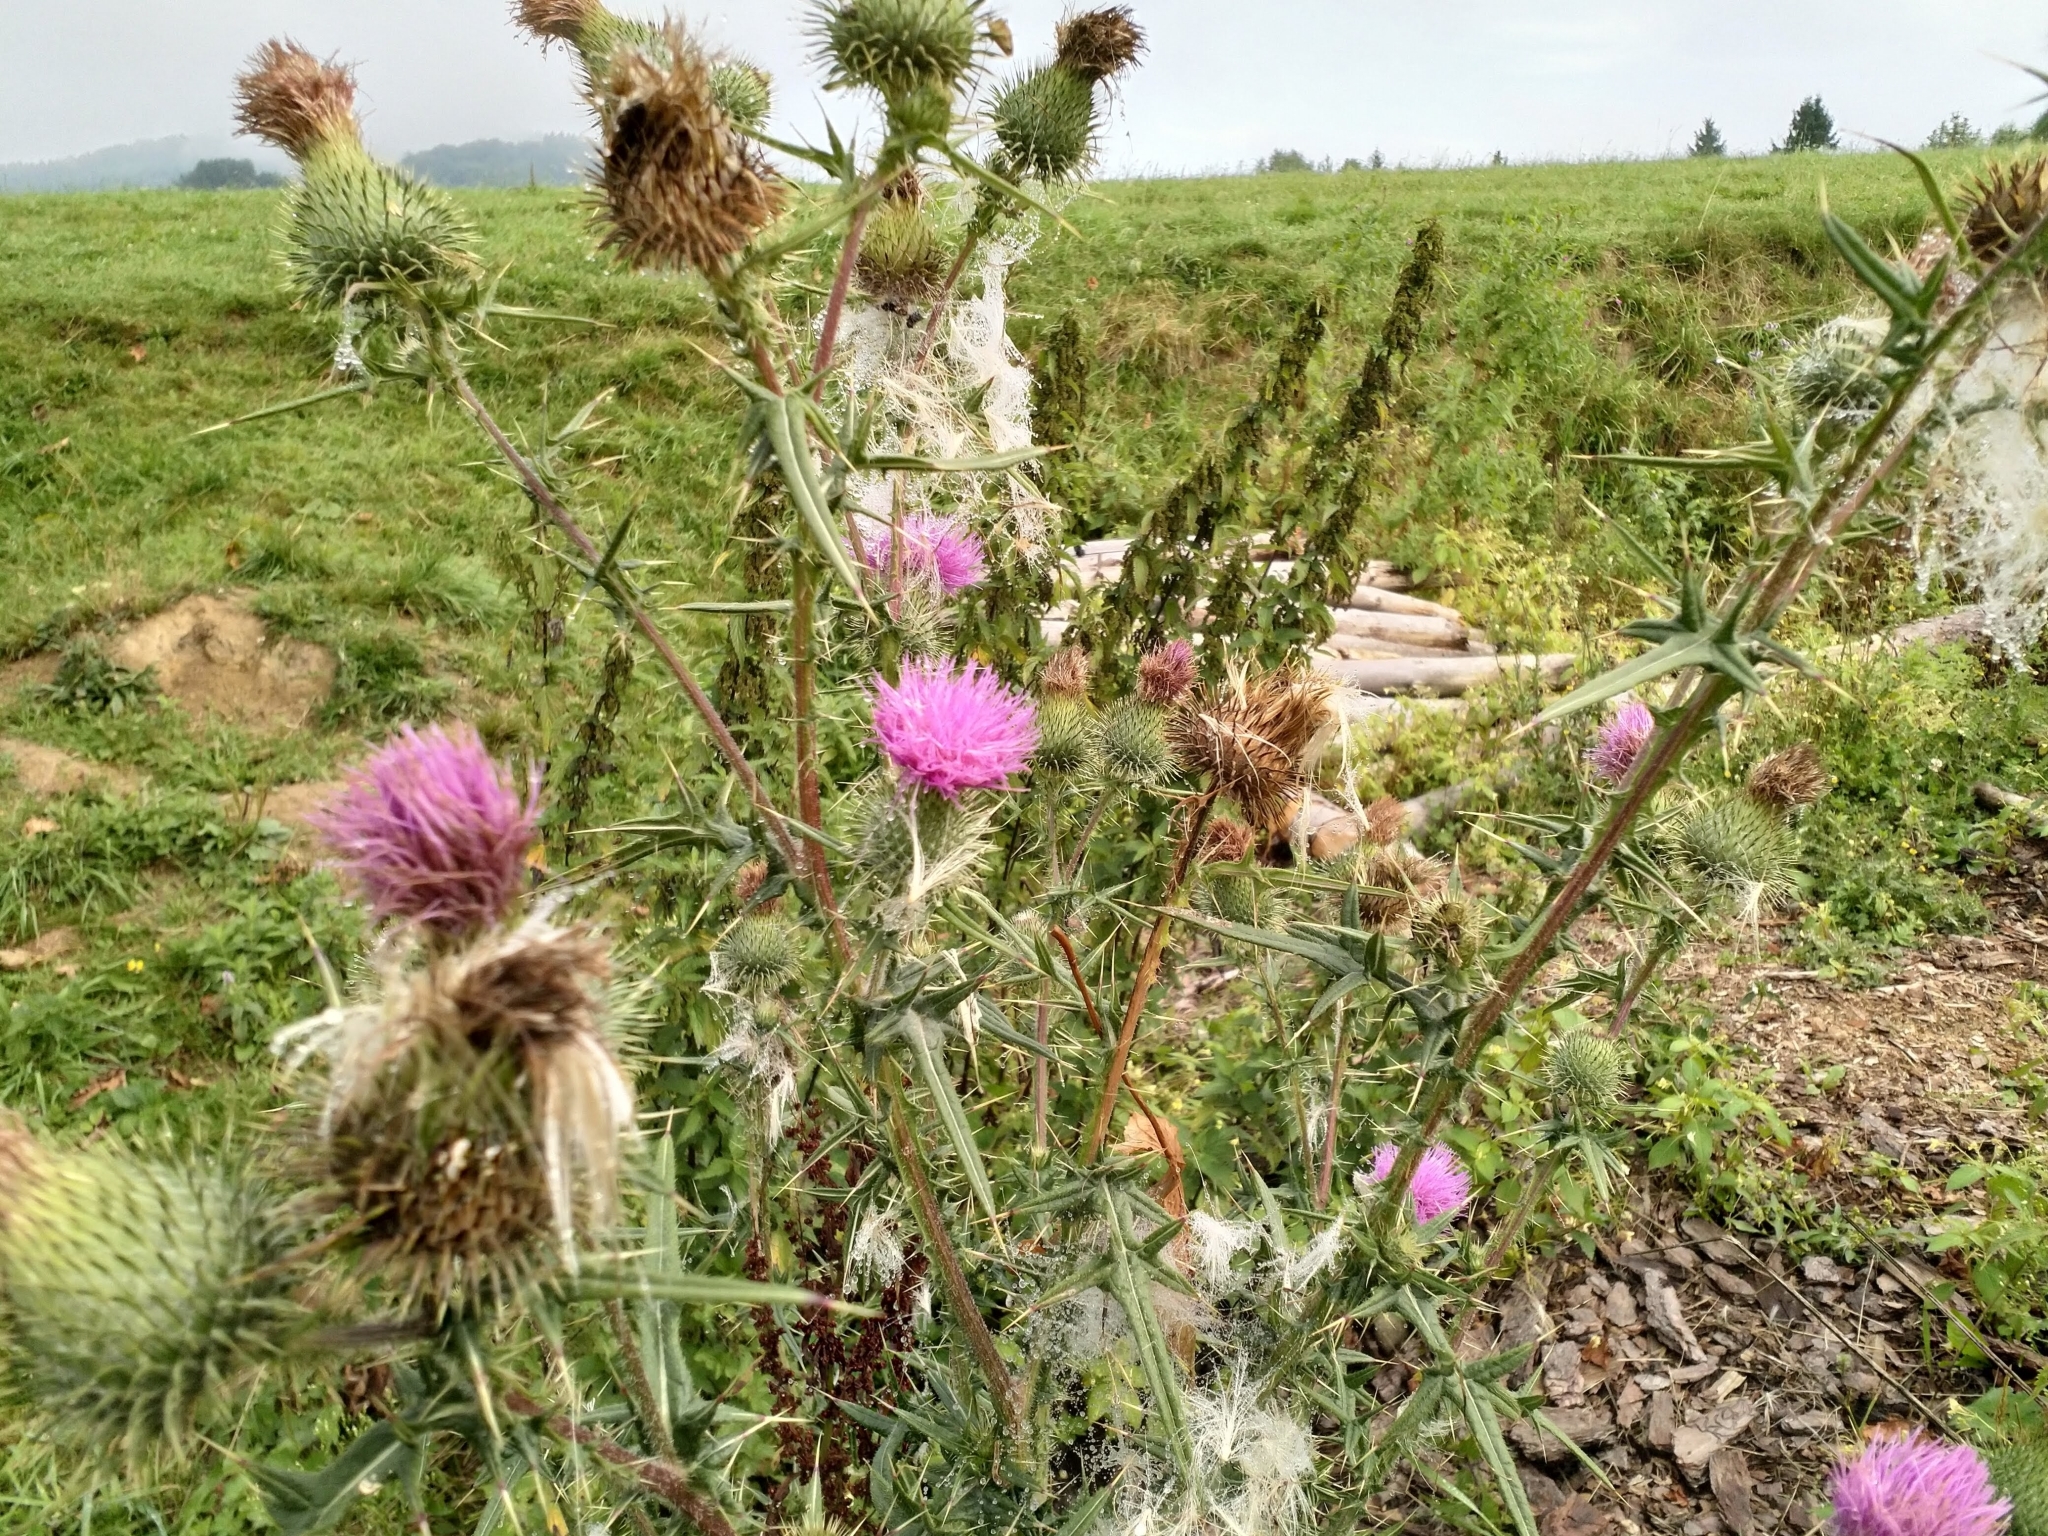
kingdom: Plantae
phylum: Tracheophyta
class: Magnoliopsida
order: Asterales
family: Asteraceae
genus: Cirsium
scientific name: Cirsium vulgare
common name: Bull thistle
